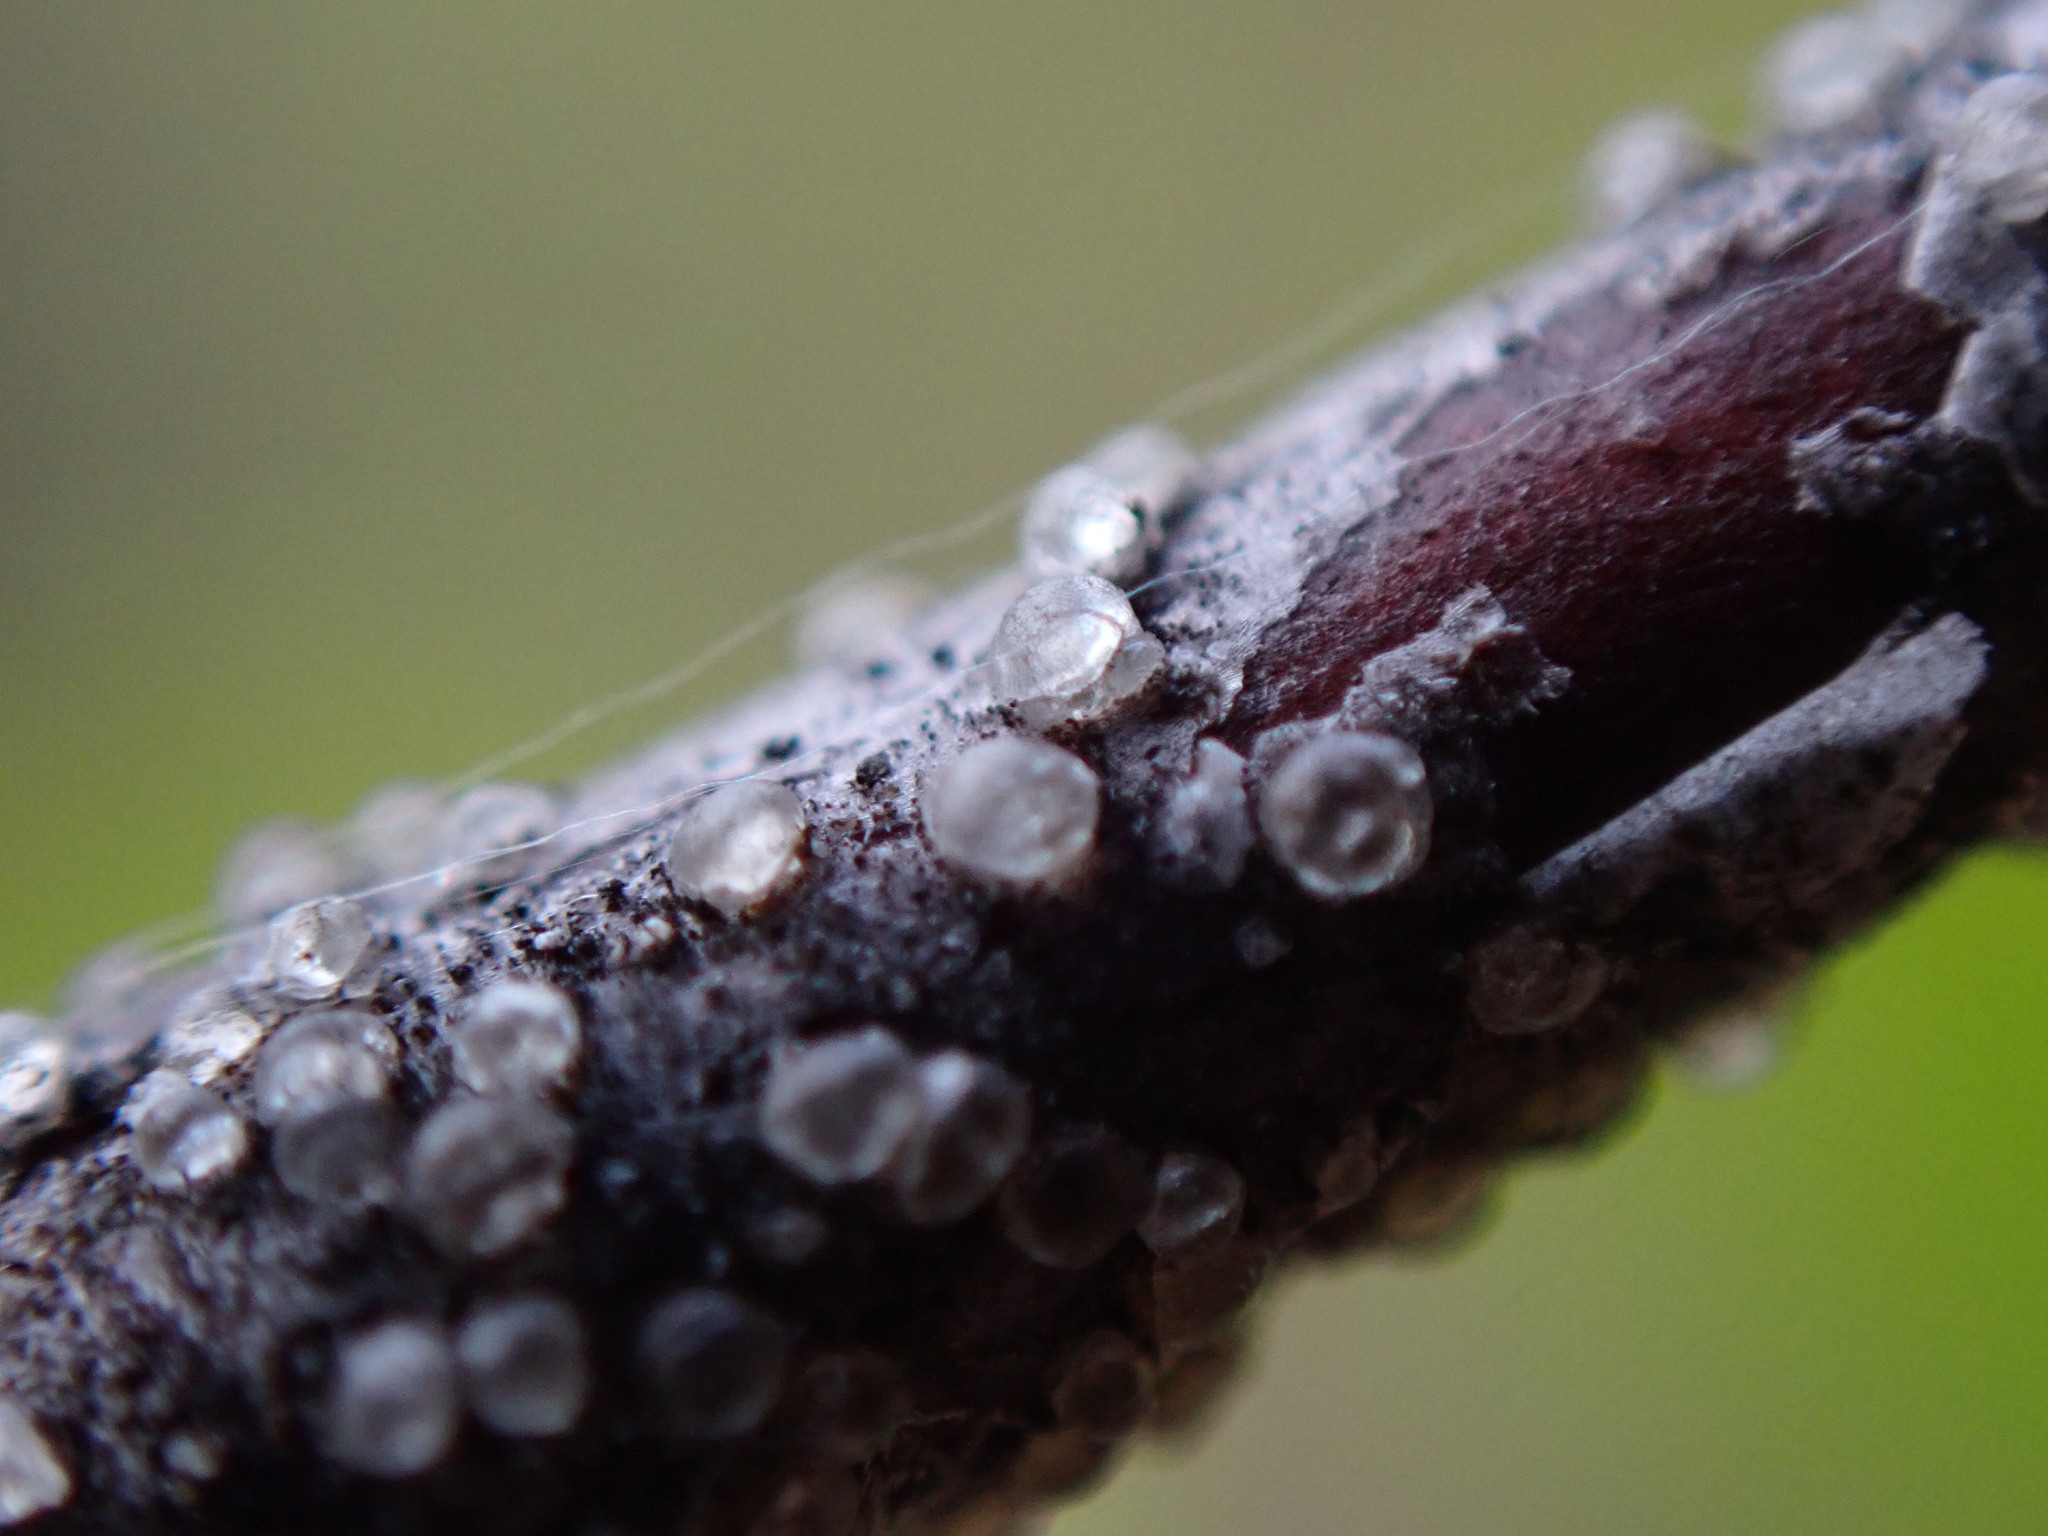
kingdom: Plantae
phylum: Tracheophyta
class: Magnoliopsida
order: Fagales
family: Betulaceae
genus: Betula
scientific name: Betula glandulosa
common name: Dwarf birch
